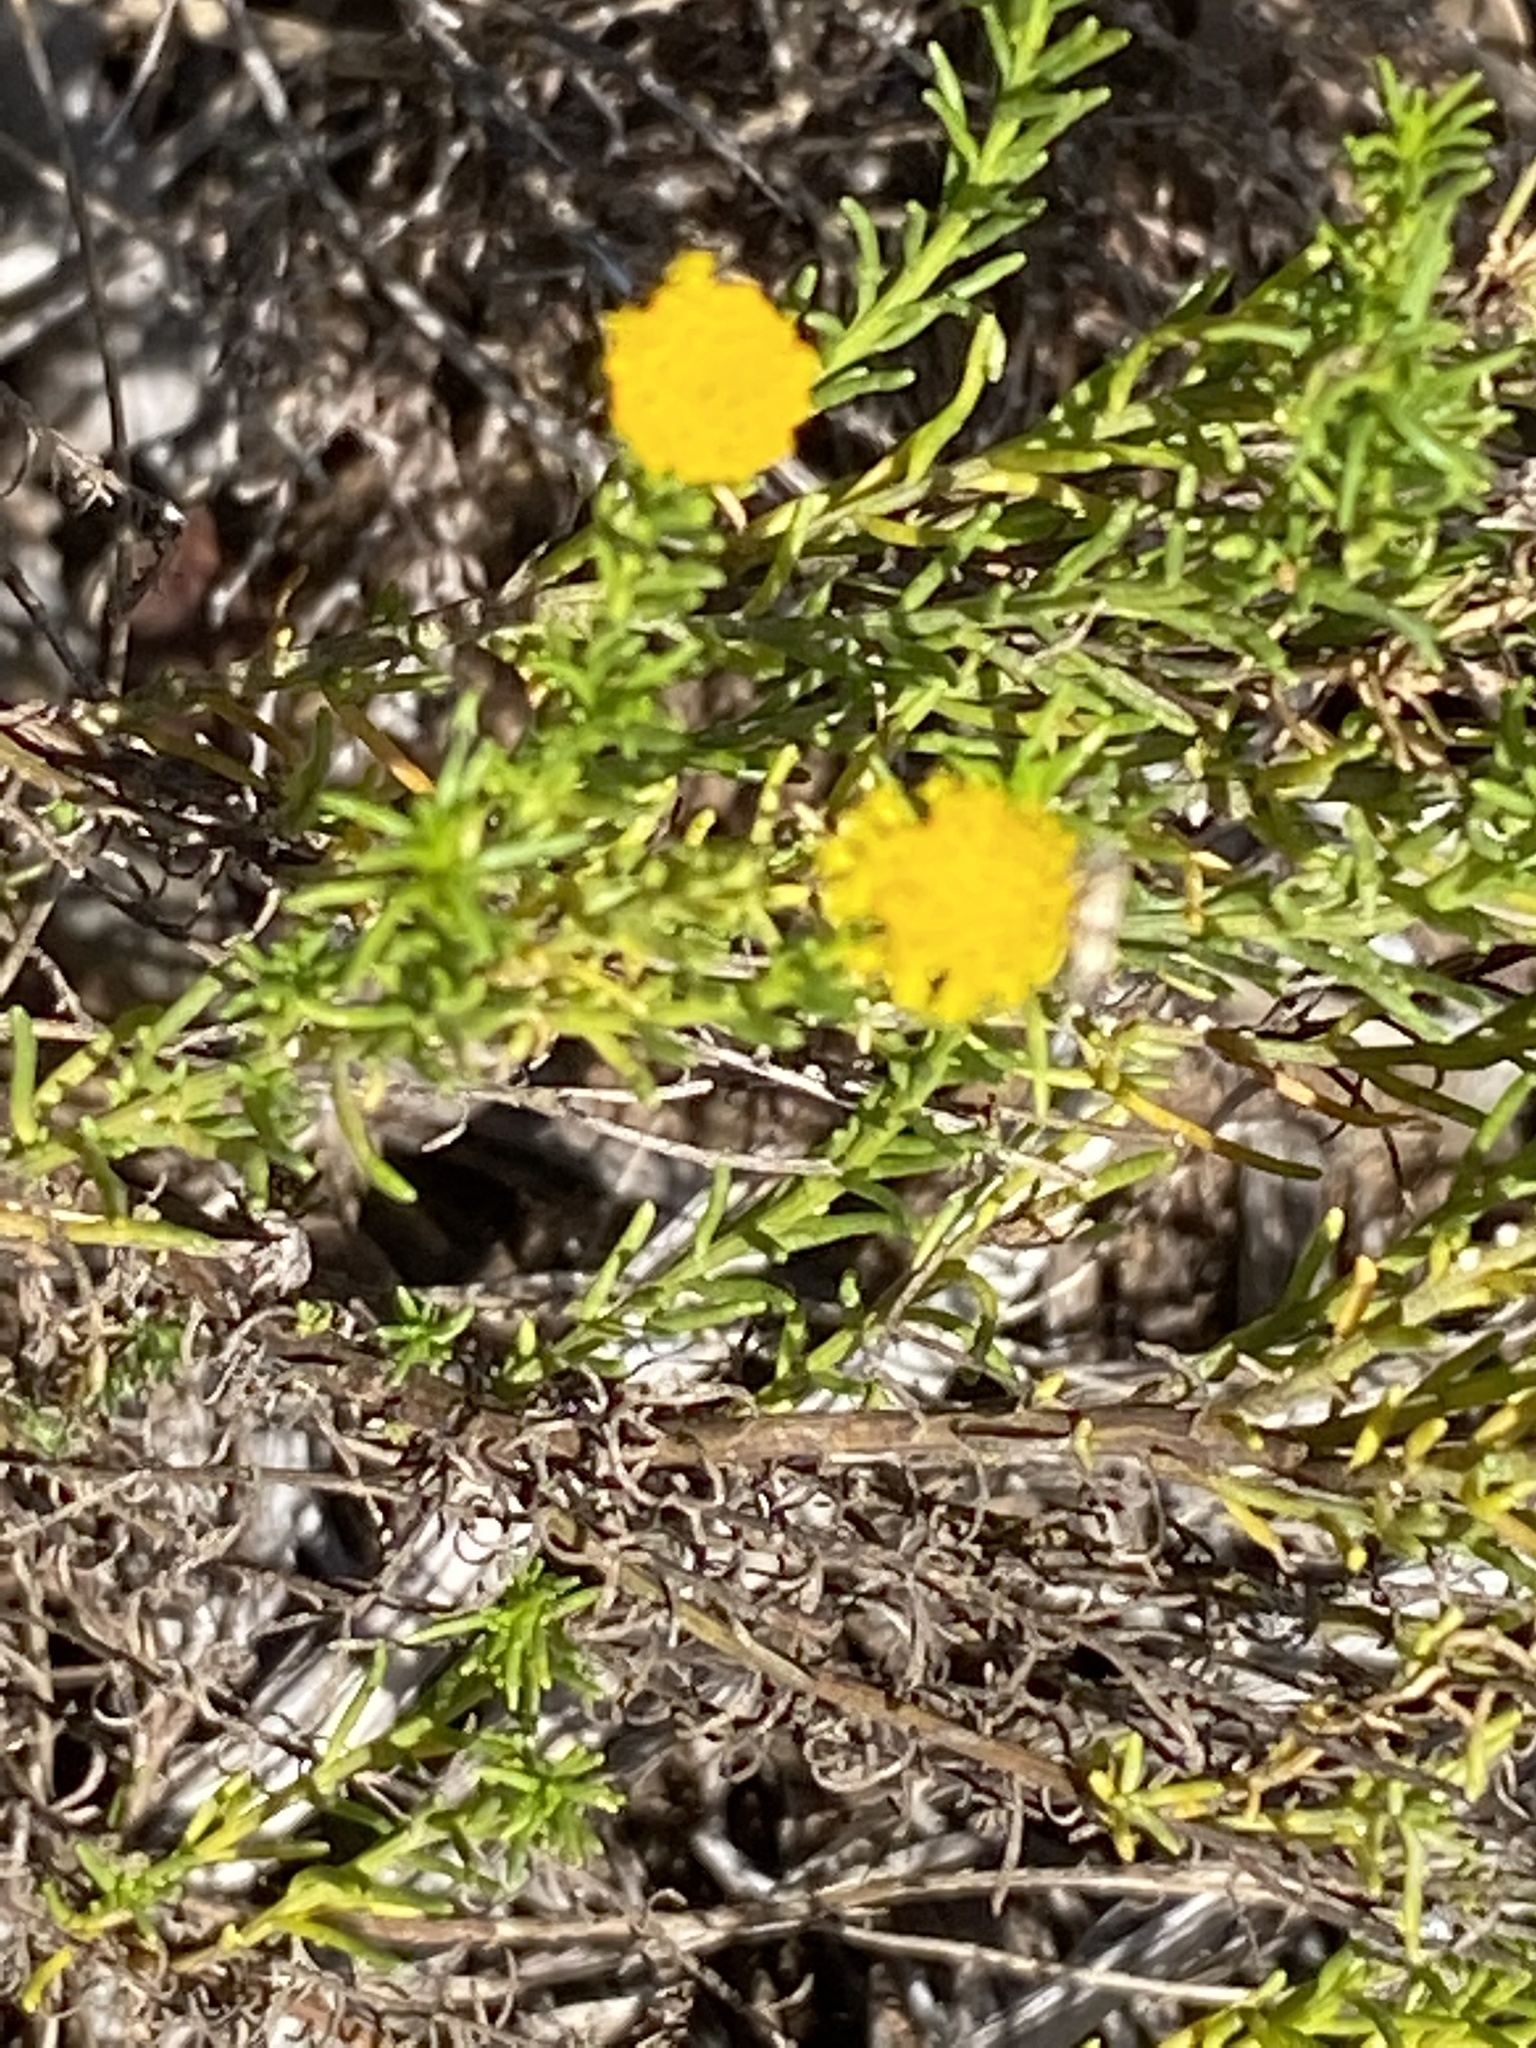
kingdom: Plantae
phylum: Tracheophyta
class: Magnoliopsida
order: Asterales
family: Asteraceae
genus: Chrysocoma
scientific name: Chrysocoma ciliata
